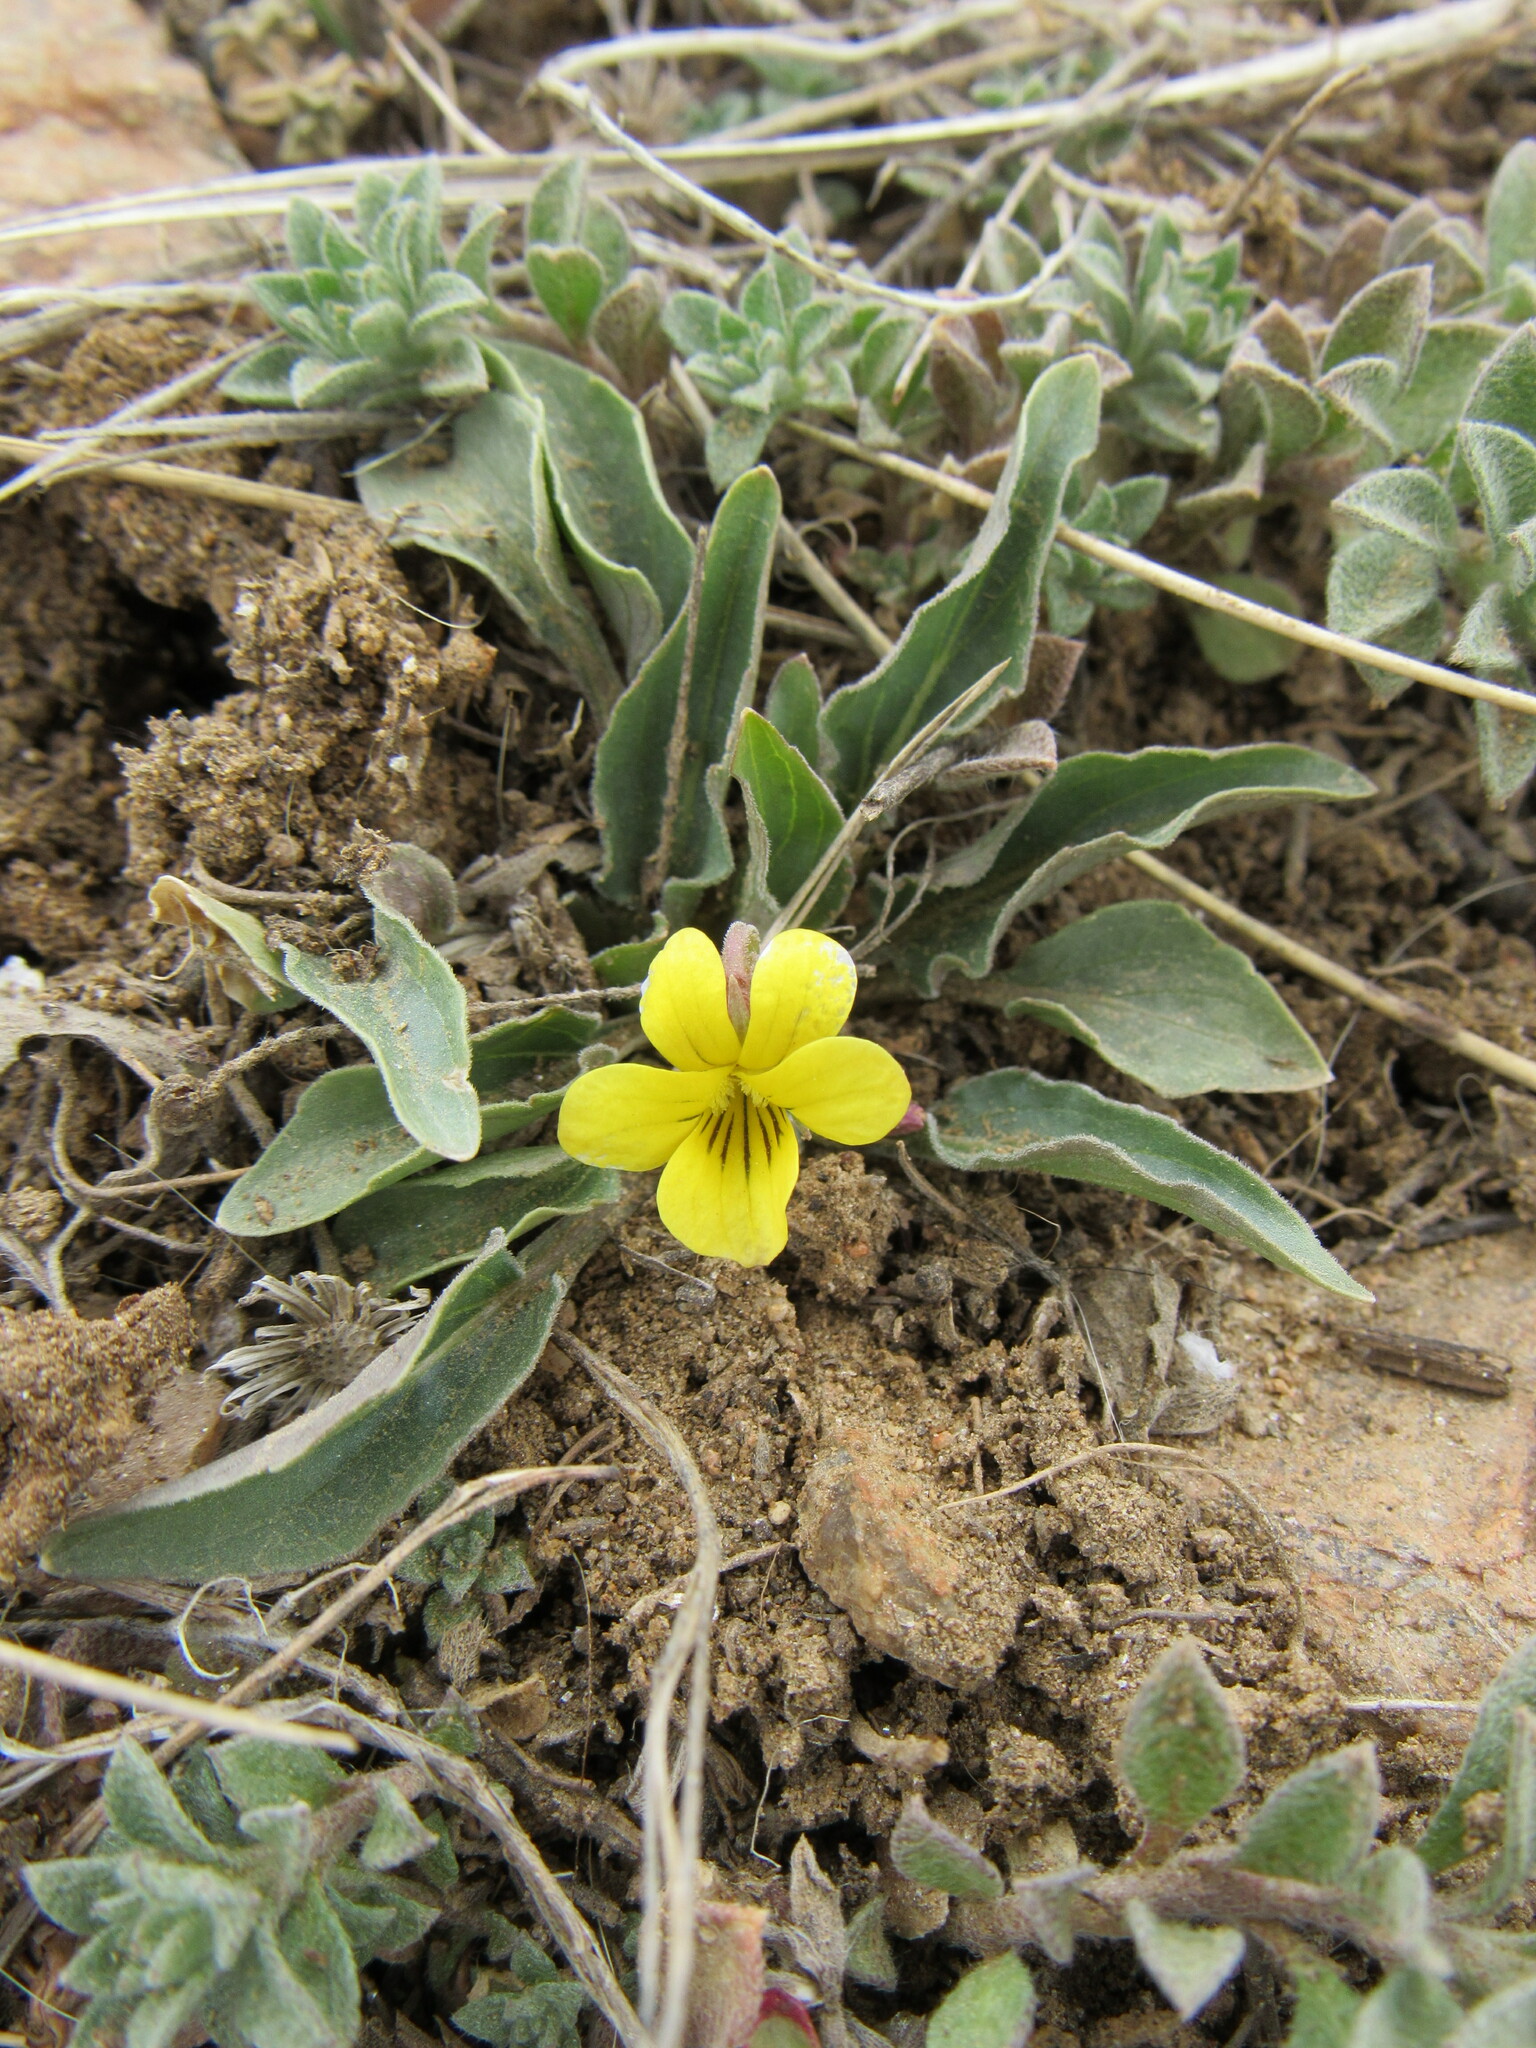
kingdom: Plantae
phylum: Tracheophyta
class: Magnoliopsida
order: Malpighiales
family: Violaceae
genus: Viola
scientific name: Viola nuttallii
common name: Yellow prairie violet
